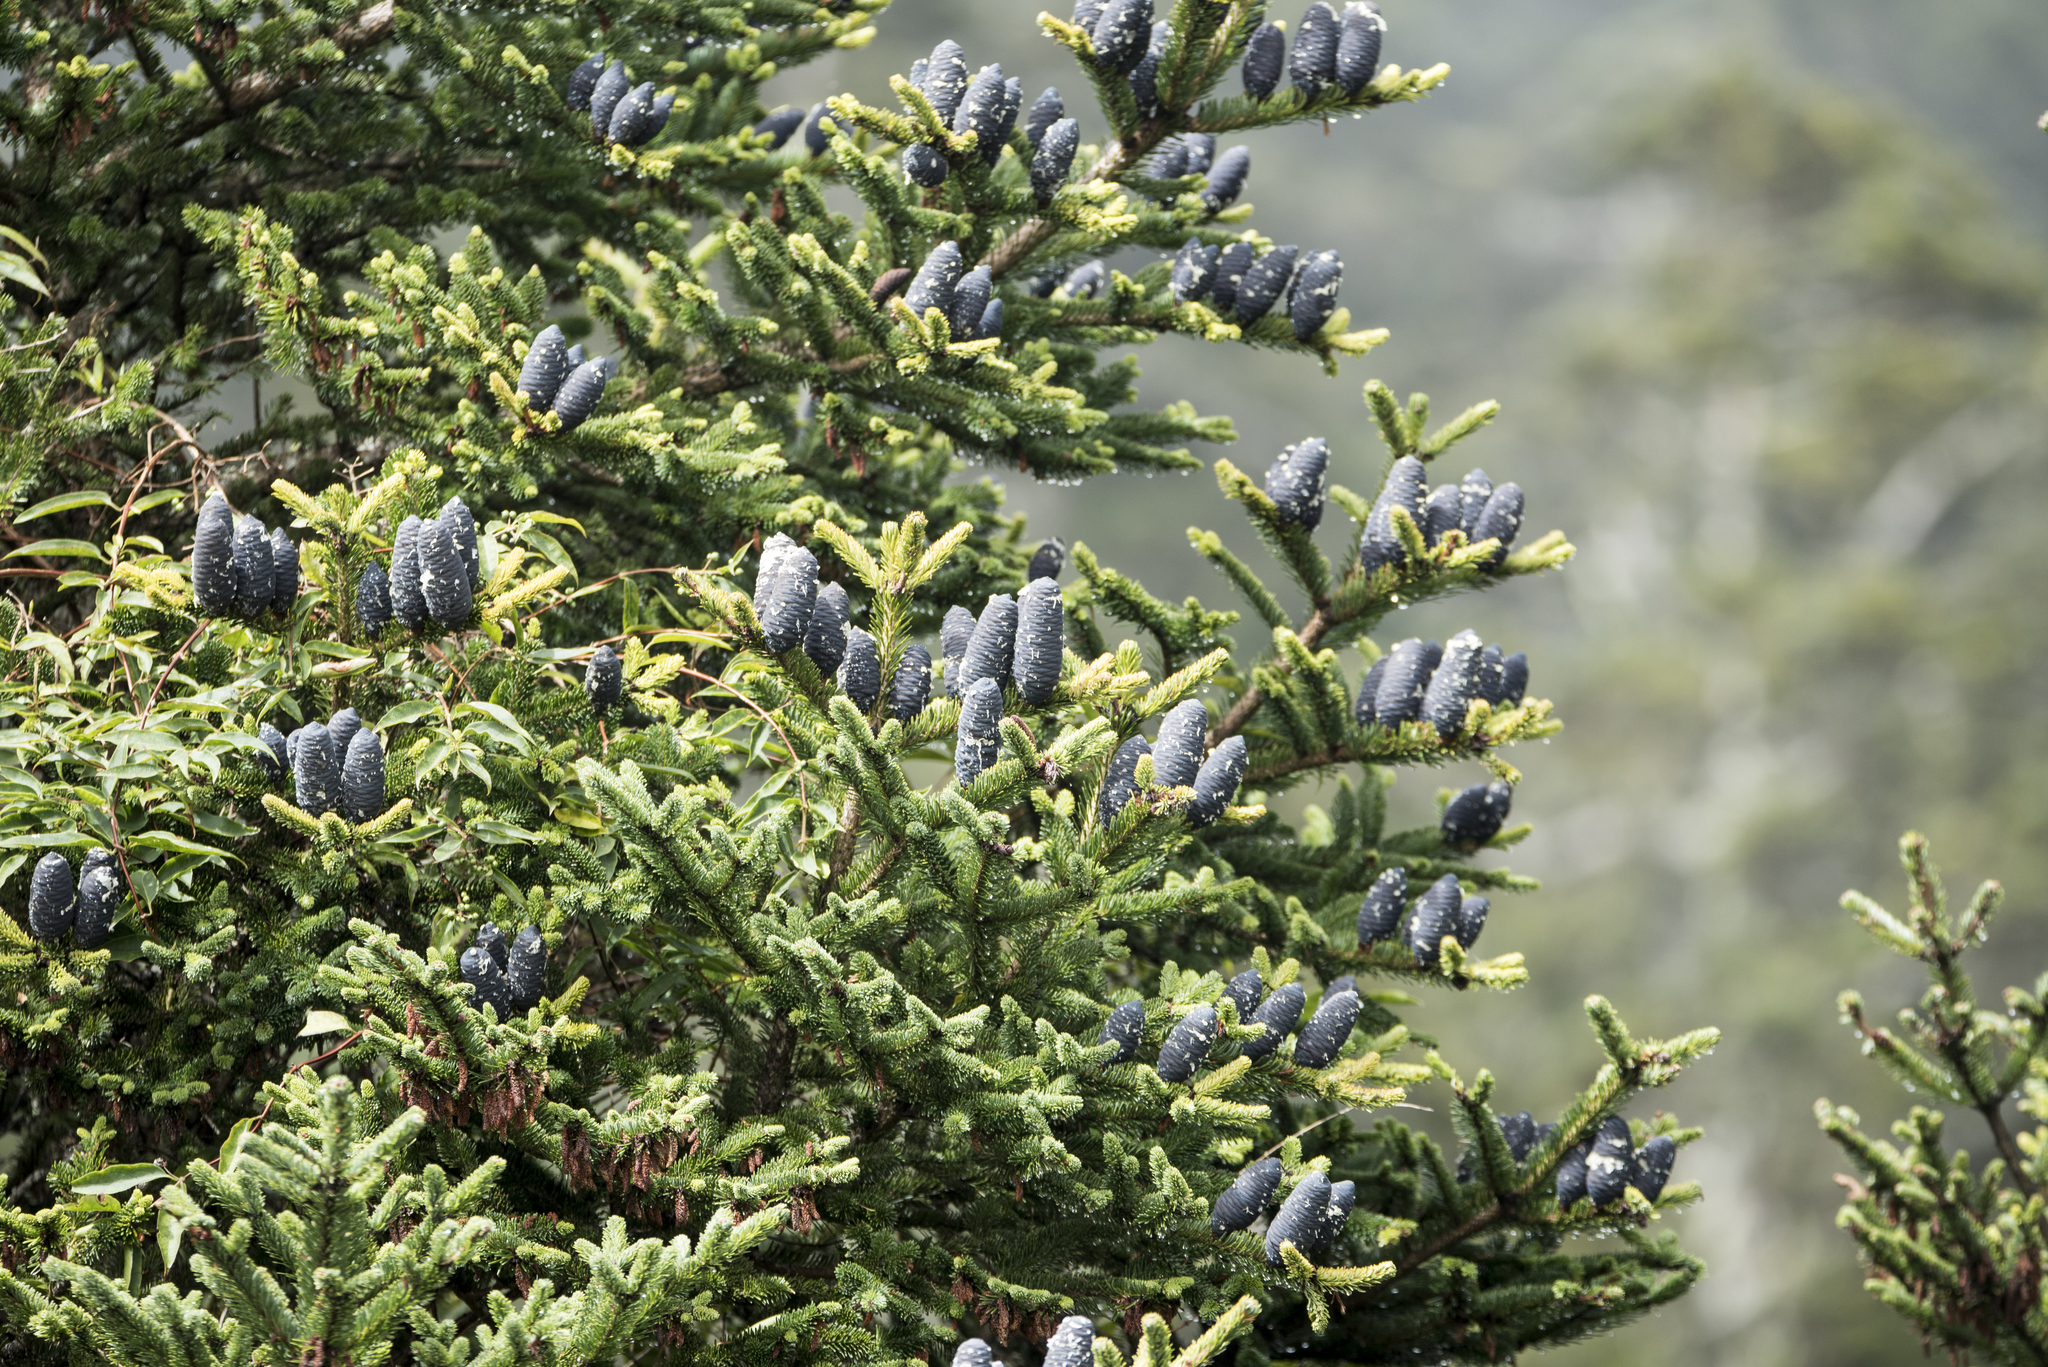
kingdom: Plantae
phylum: Tracheophyta
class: Pinopsida
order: Pinales
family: Pinaceae
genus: Abies
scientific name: Abies kawakamii
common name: Taiwan fir
